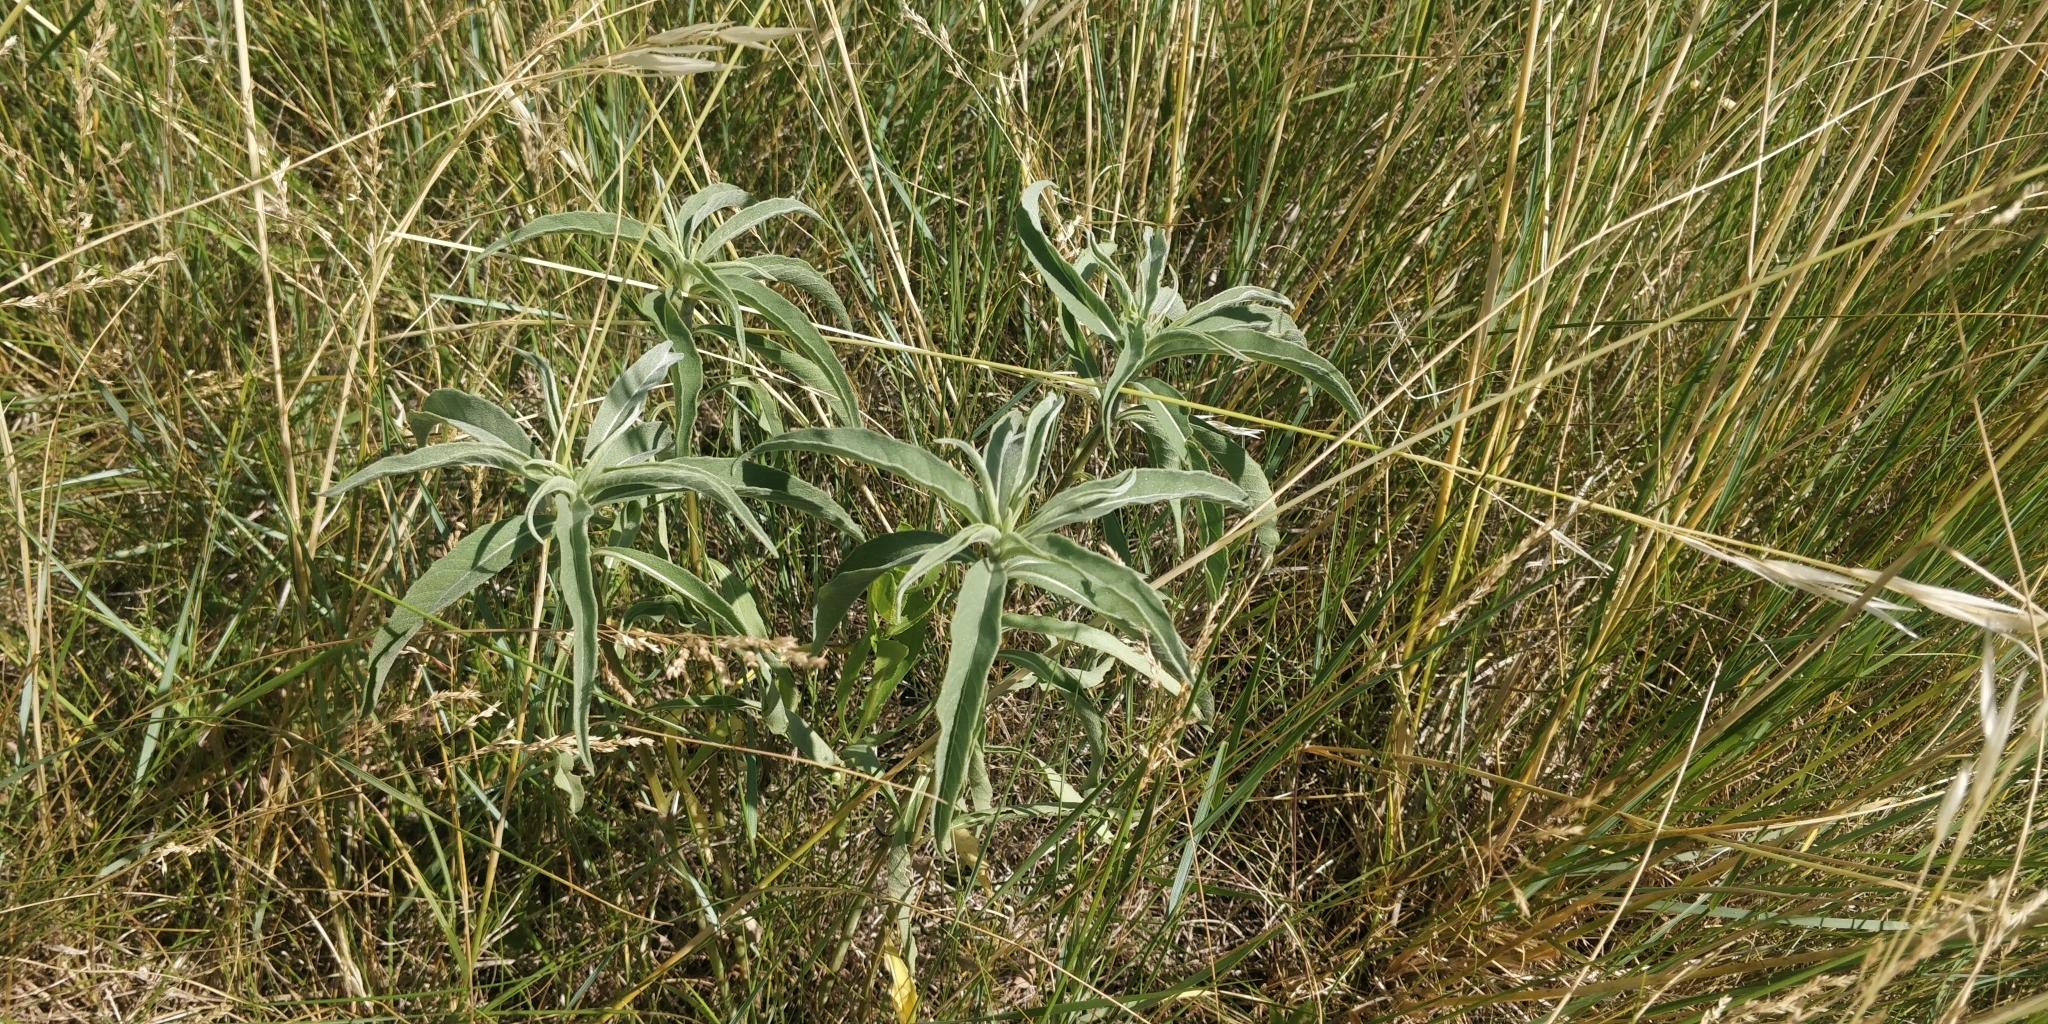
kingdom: Plantae
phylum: Tracheophyta
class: Magnoliopsida
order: Asterales
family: Asteraceae
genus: Helianthus
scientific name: Helianthus maximiliani
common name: Maximilian's sunflower
